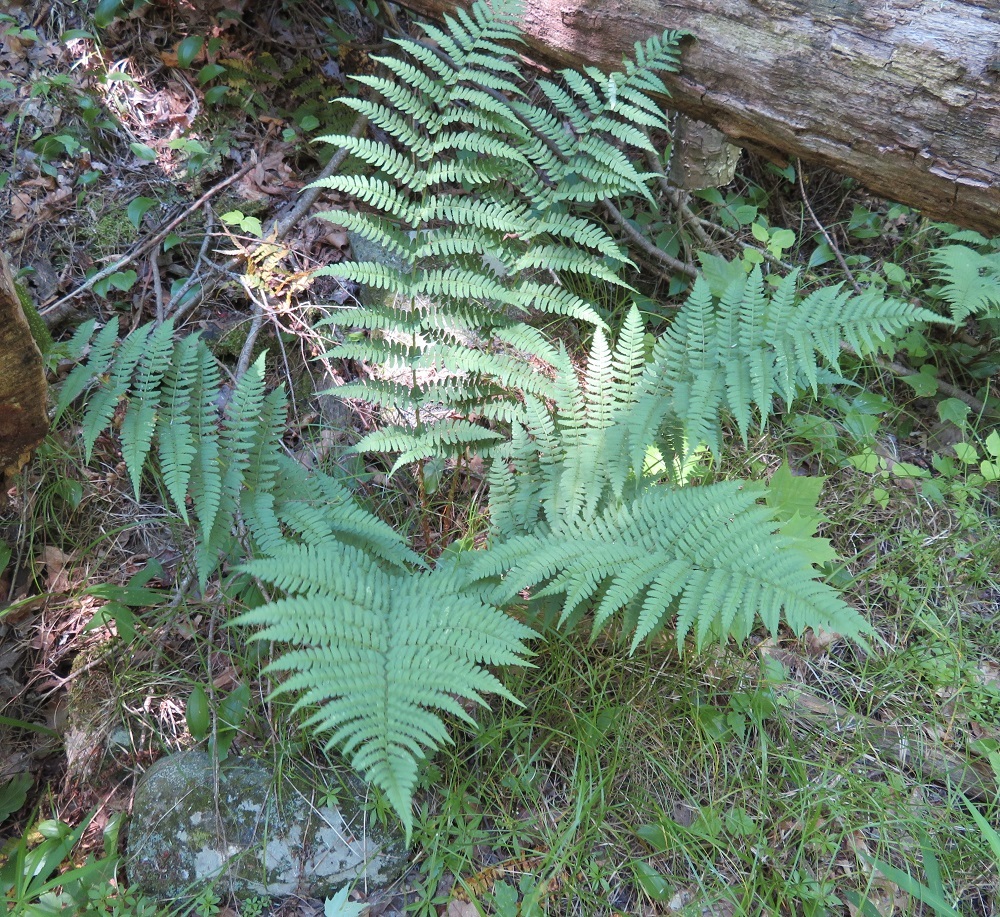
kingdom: Plantae
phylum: Tracheophyta
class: Polypodiopsida
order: Polypodiales
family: Dryopteridaceae
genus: Dryopteris
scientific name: Dryopteris marginalis
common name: Marginal wood fern
